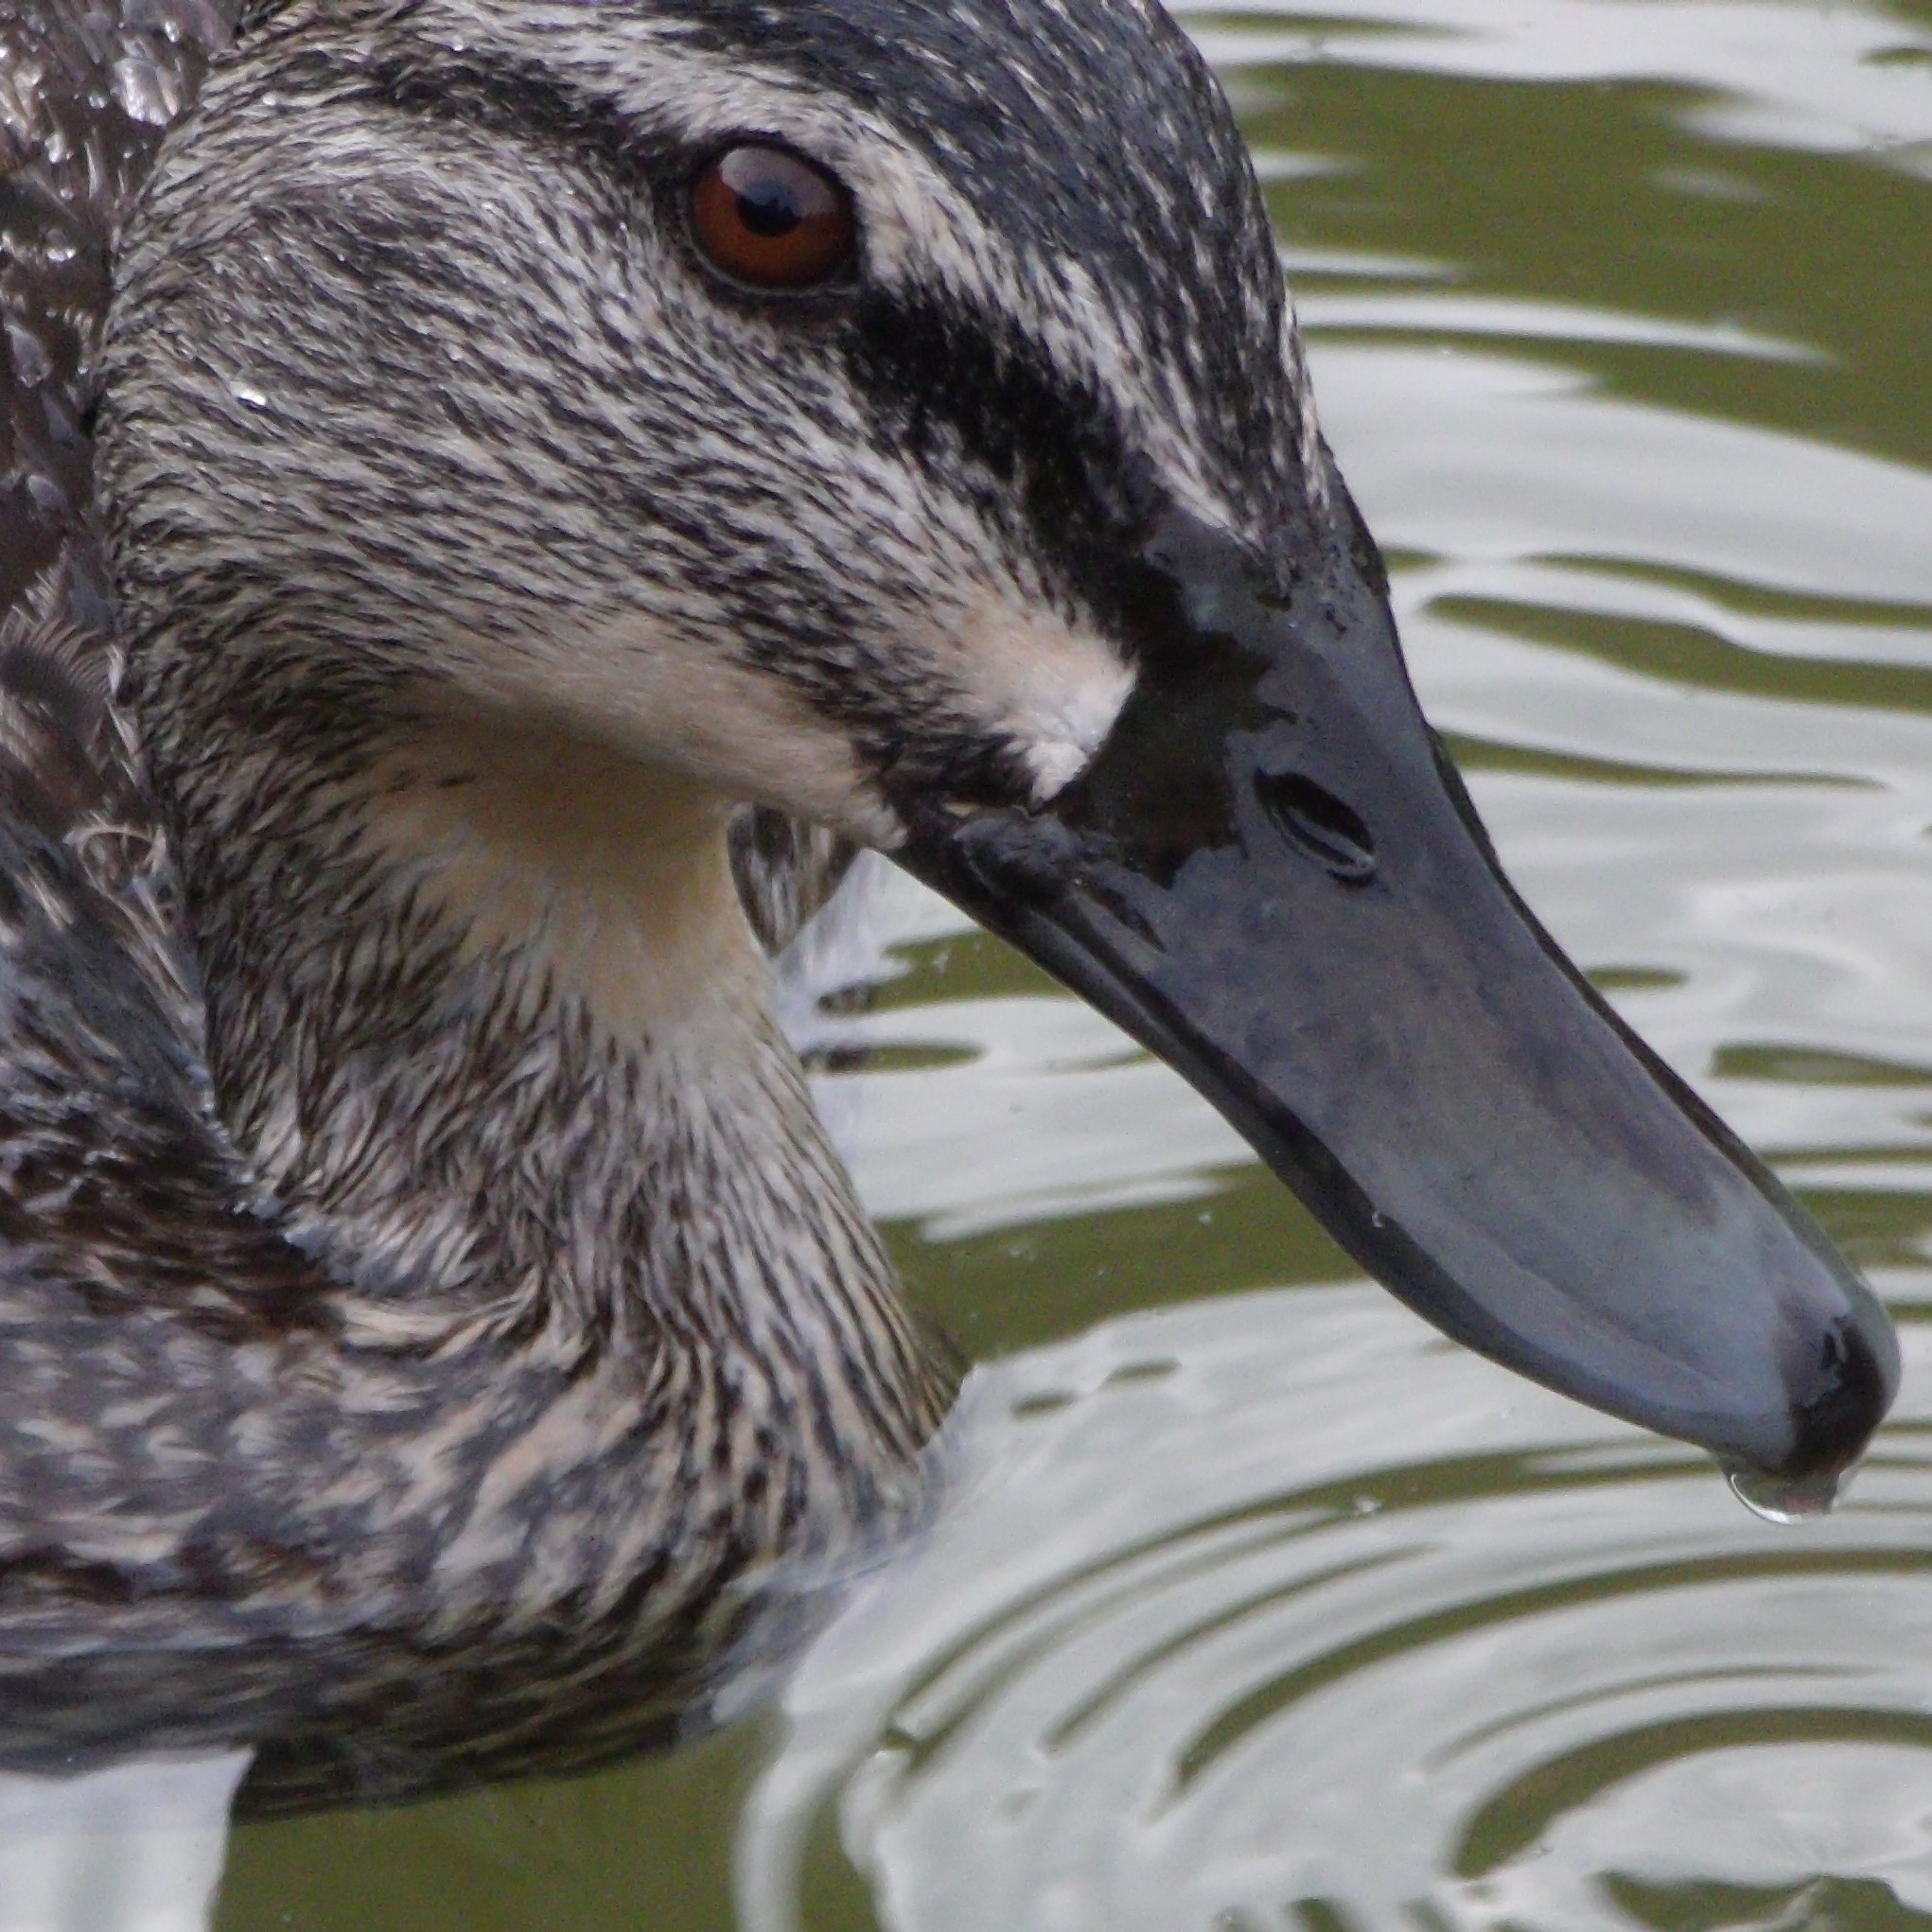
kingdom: Animalia
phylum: Chordata
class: Aves
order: Anseriformes
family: Anatidae
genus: Anas
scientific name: Anas
